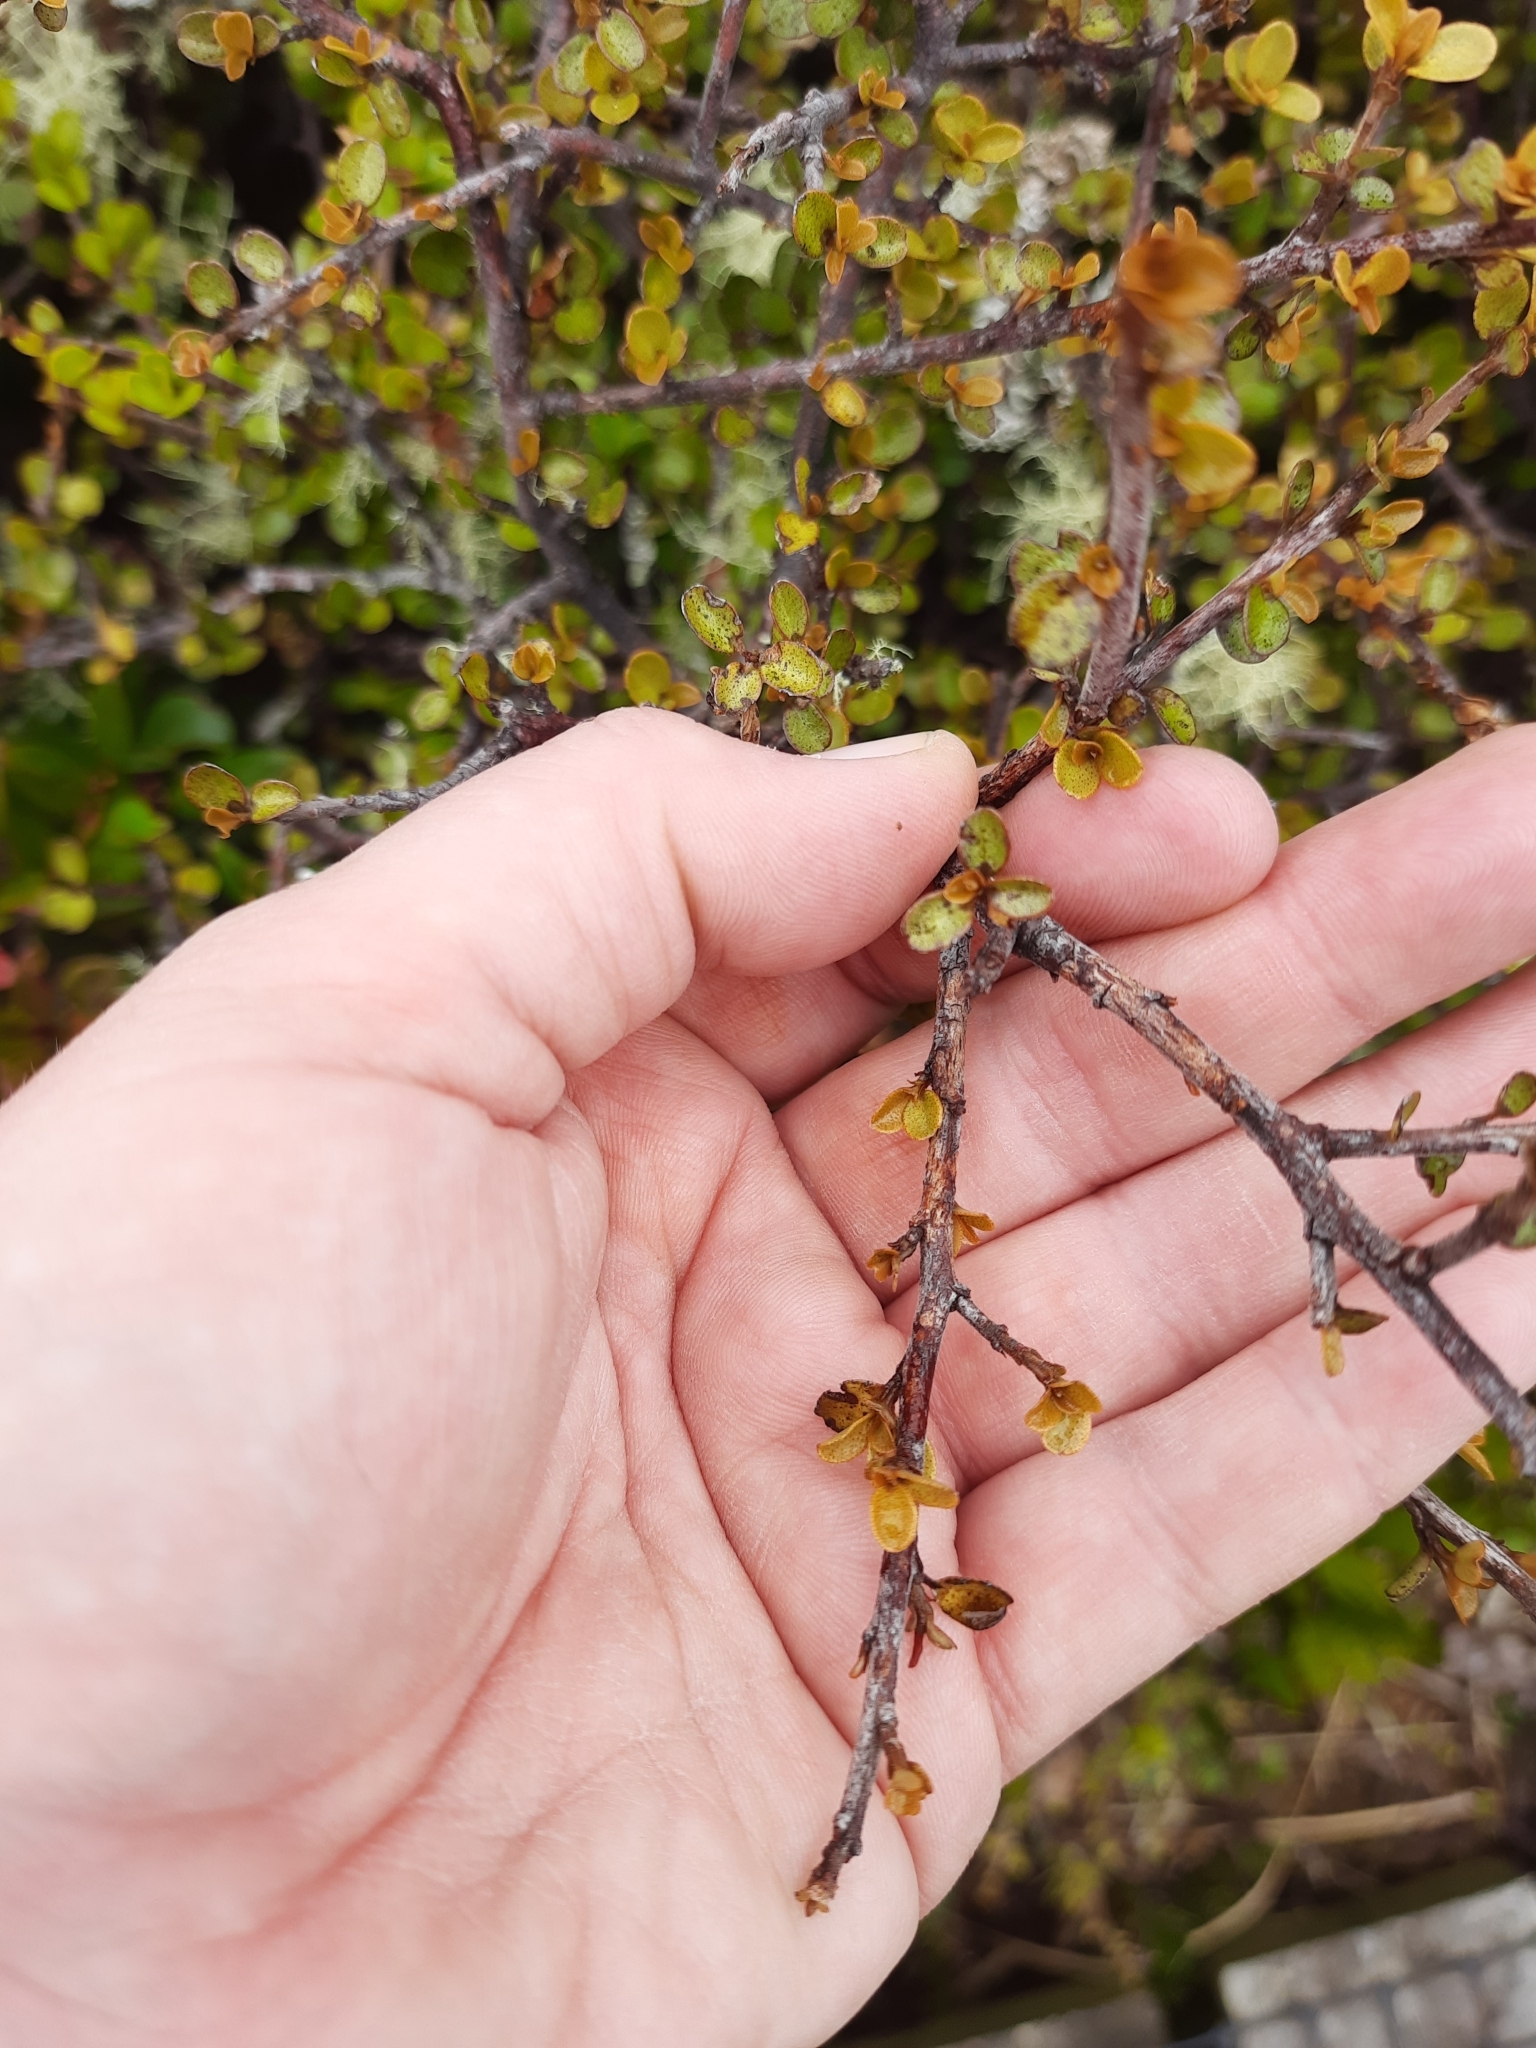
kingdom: Plantae
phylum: Tracheophyta
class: Magnoliopsida
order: Ericales
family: Primulaceae
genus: Myrsine
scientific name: Myrsine divaricata
